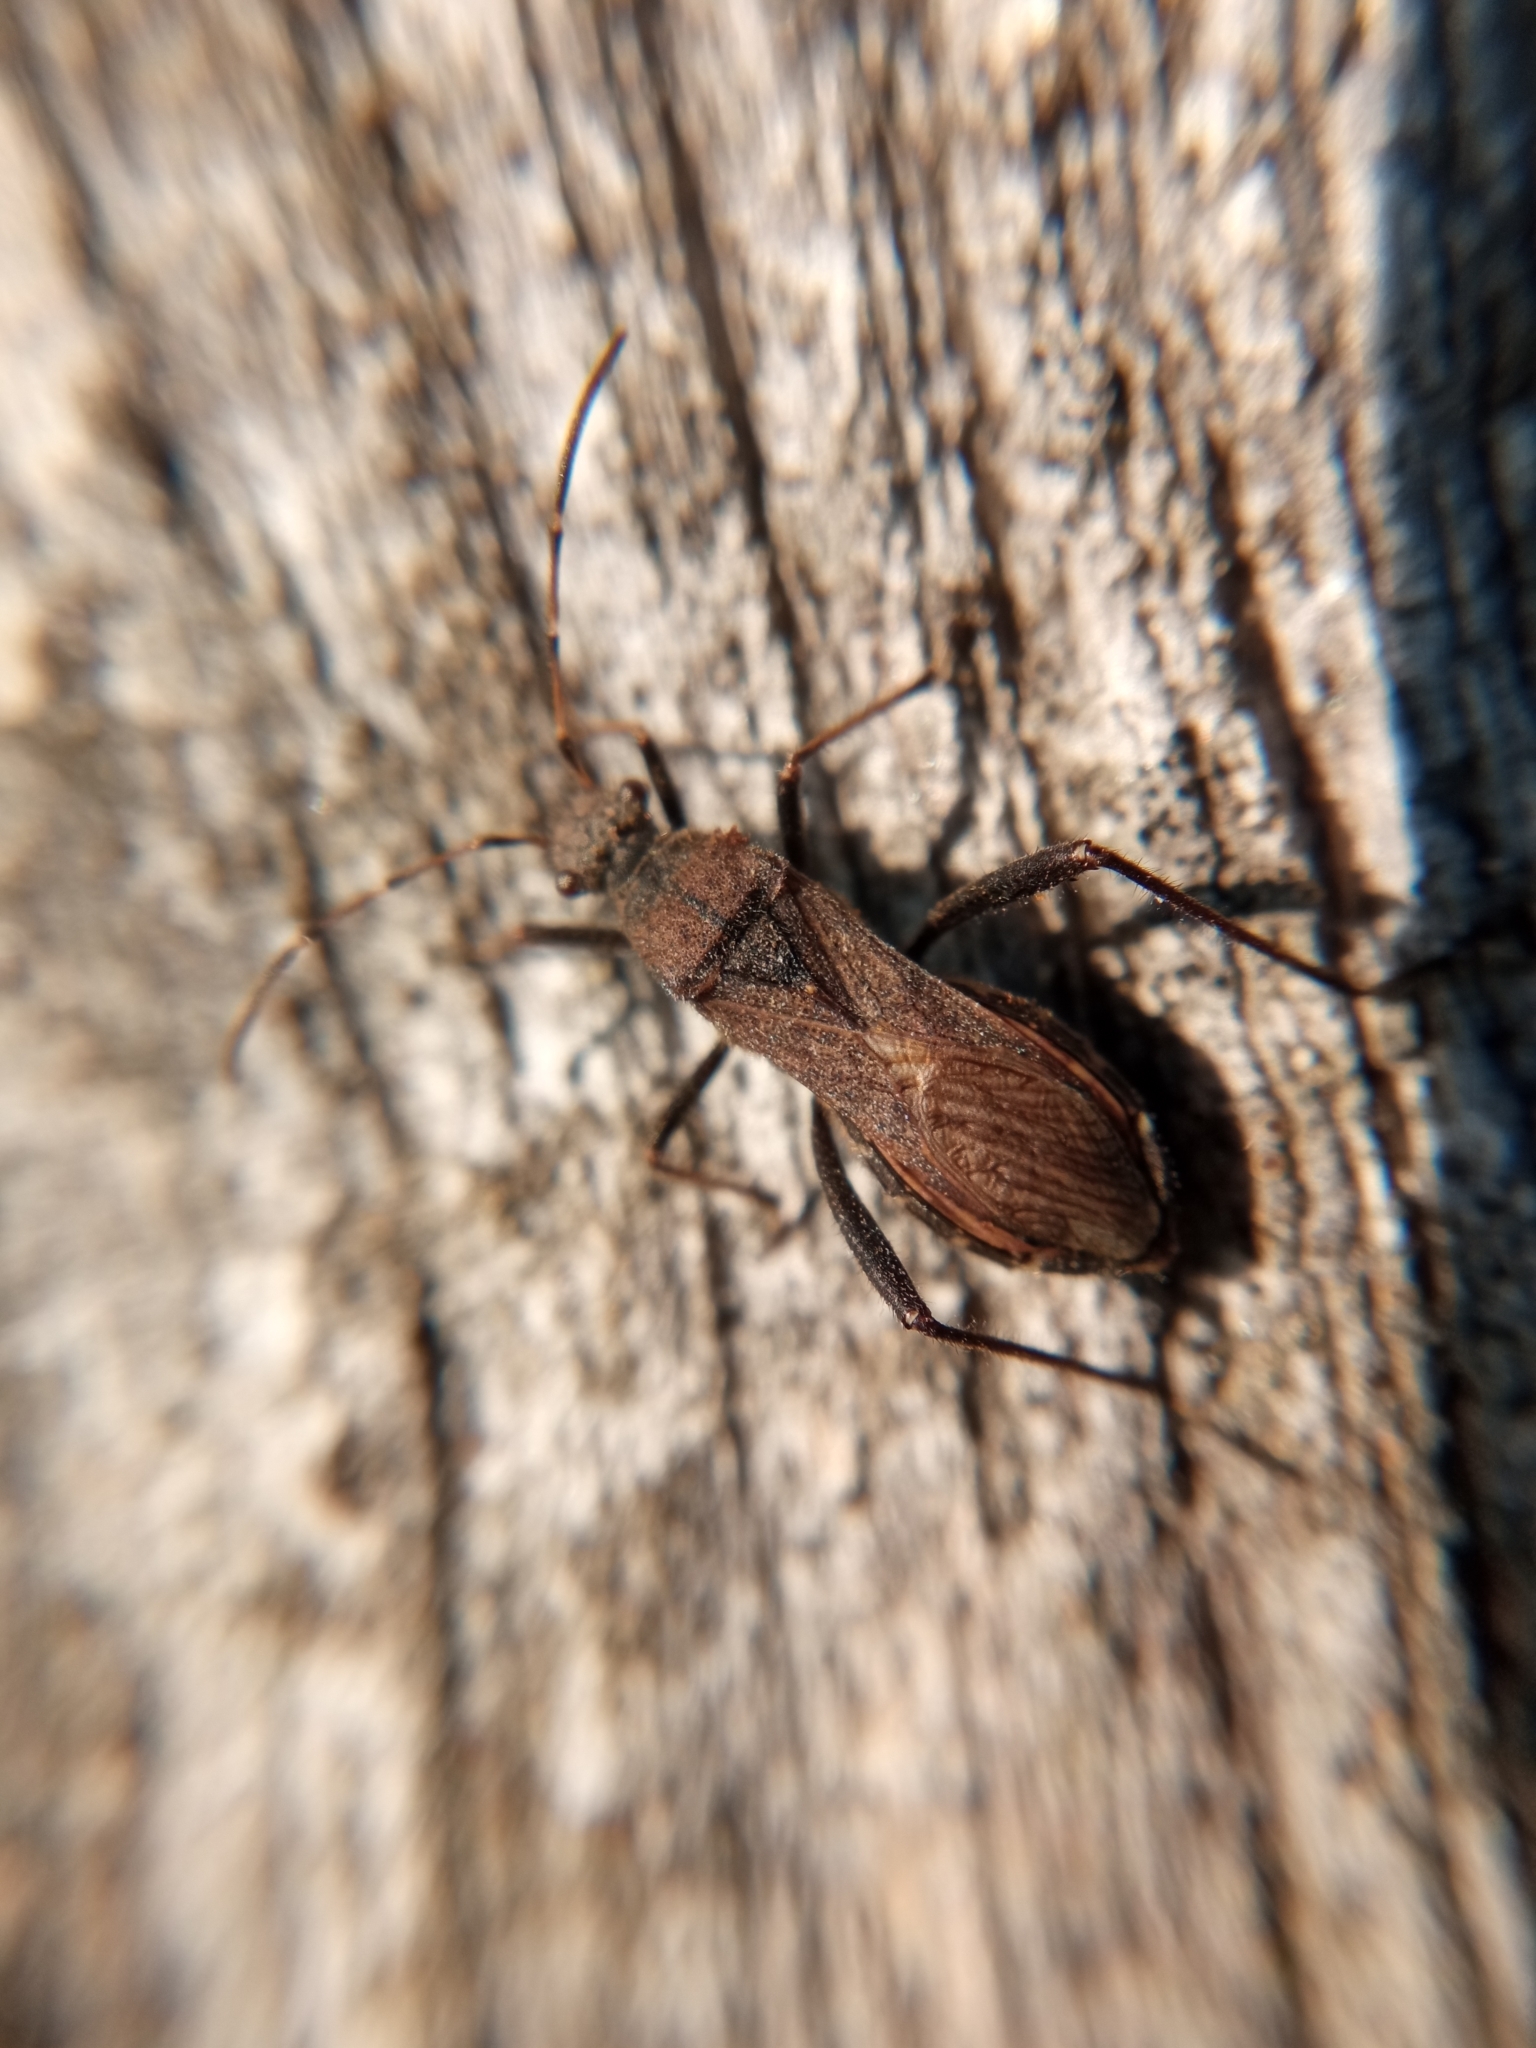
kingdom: Animalia
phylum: Arthropoda
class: Insecta
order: Hemiptera
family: Alydidae
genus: Alydus
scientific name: Alydus calcaratus
